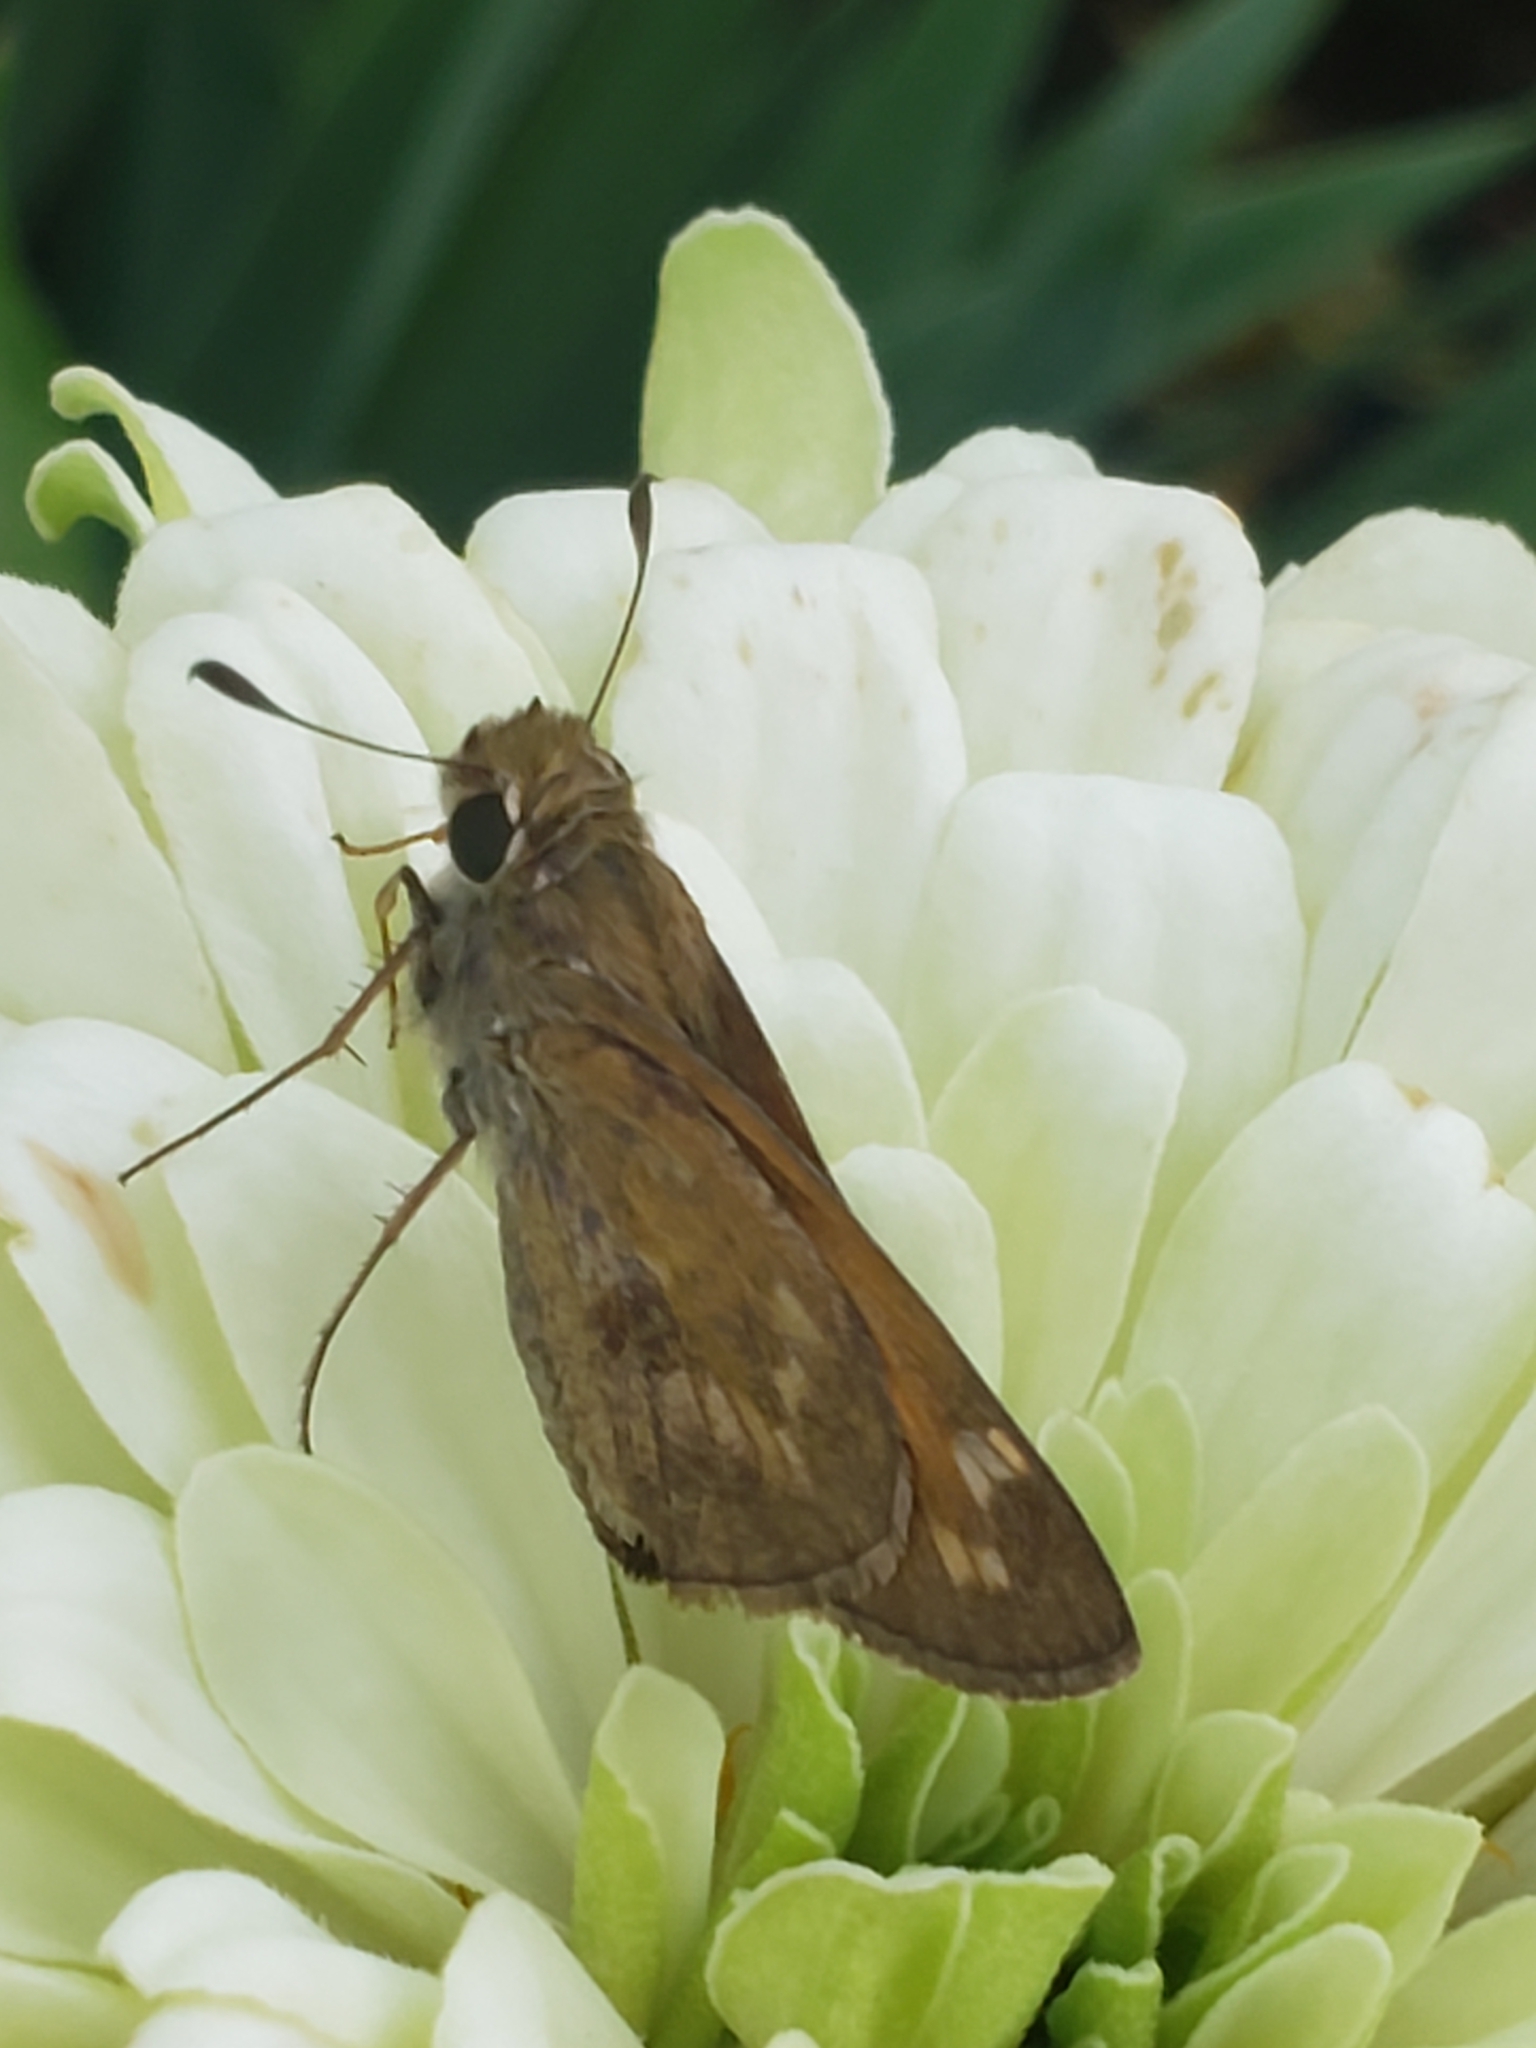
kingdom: Animalia
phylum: Arthropoda
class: Insecta
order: Lepidoptera
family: Hesperiidae
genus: Atalopedes
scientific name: Atalopedes
